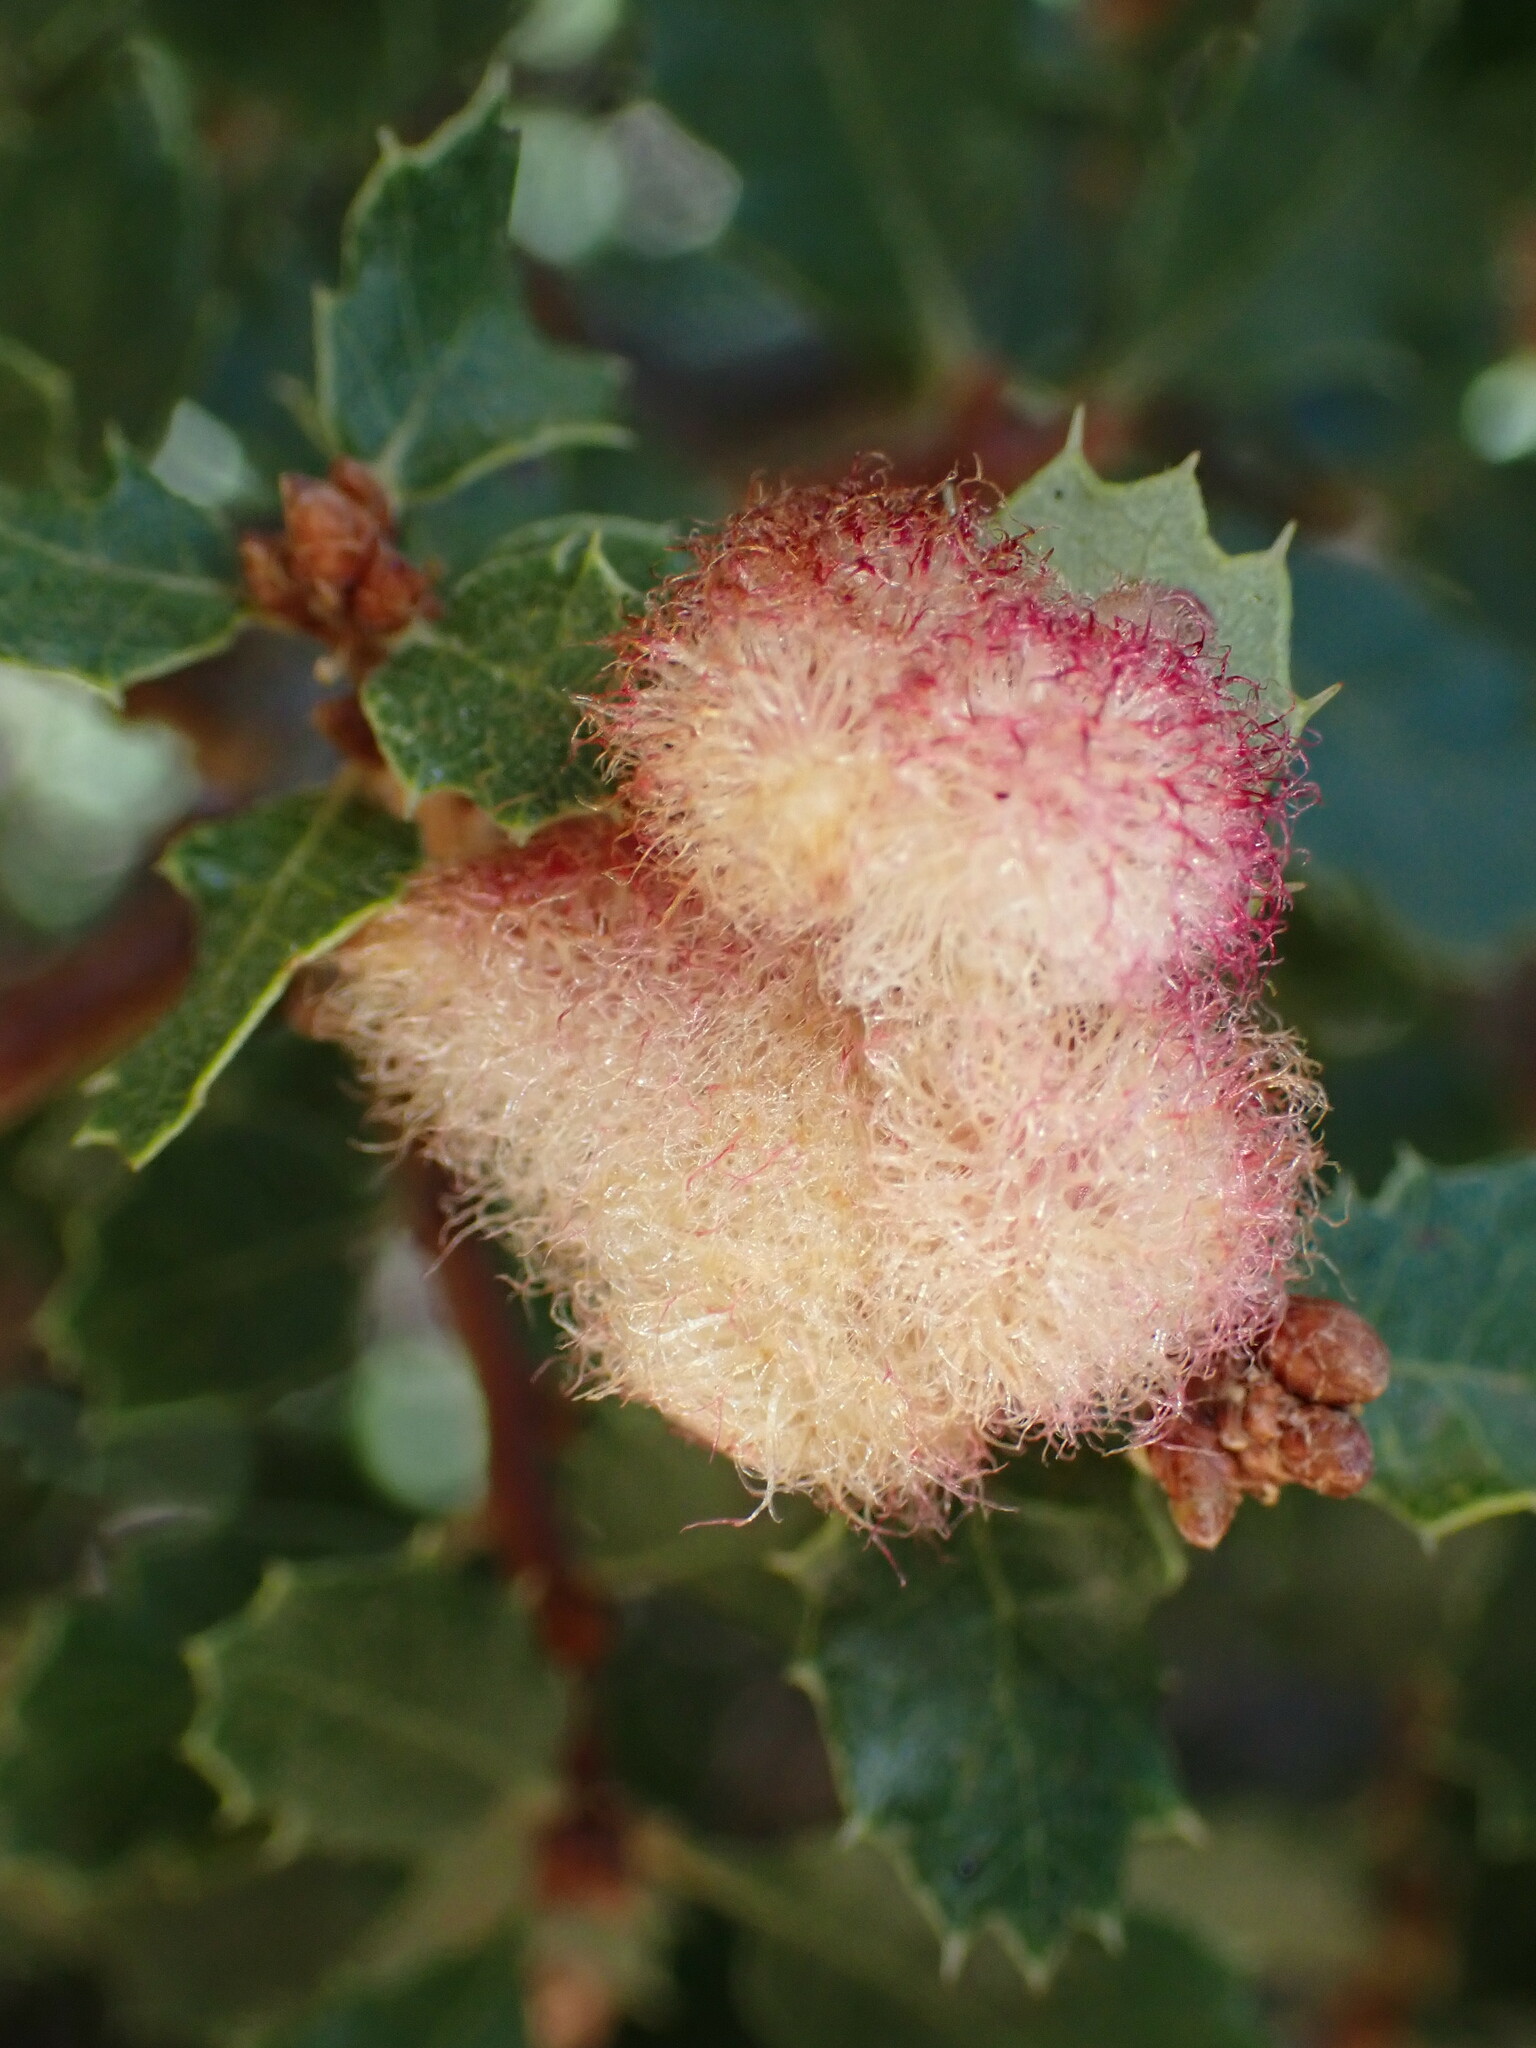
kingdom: Animalia
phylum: Arthropoda
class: Insecta
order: Hymenoptera
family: Cynipidae
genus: Andricus
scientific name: Andricus
